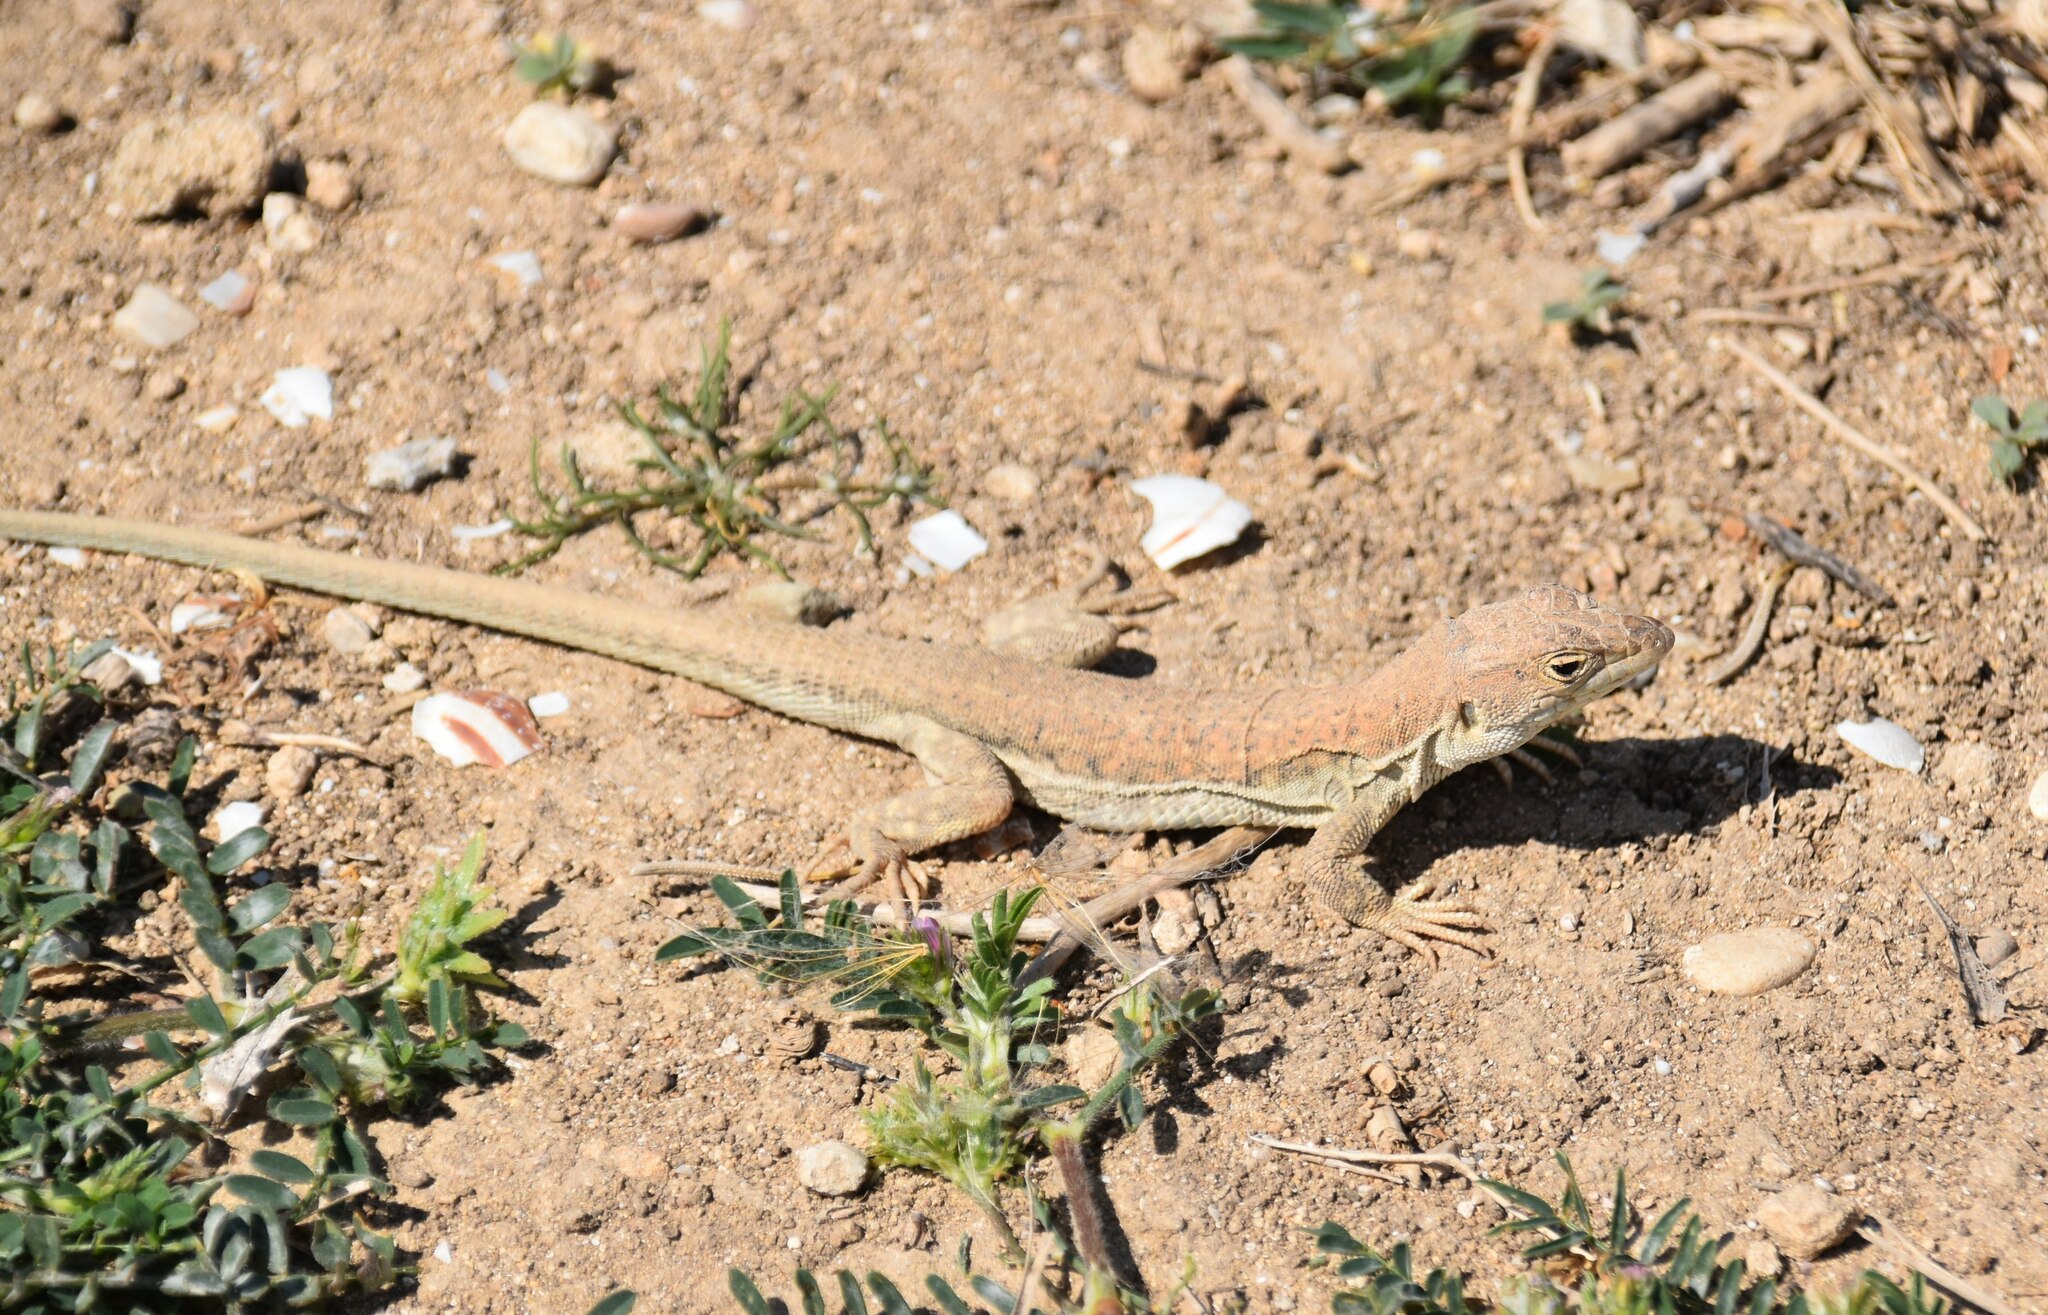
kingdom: Animalia
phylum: Chordata
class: Squamata
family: Lacertidae
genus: Acanthodactylus
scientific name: Acanthodactylus schreiberi
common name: Schreiber's fringe-fingered lizard
